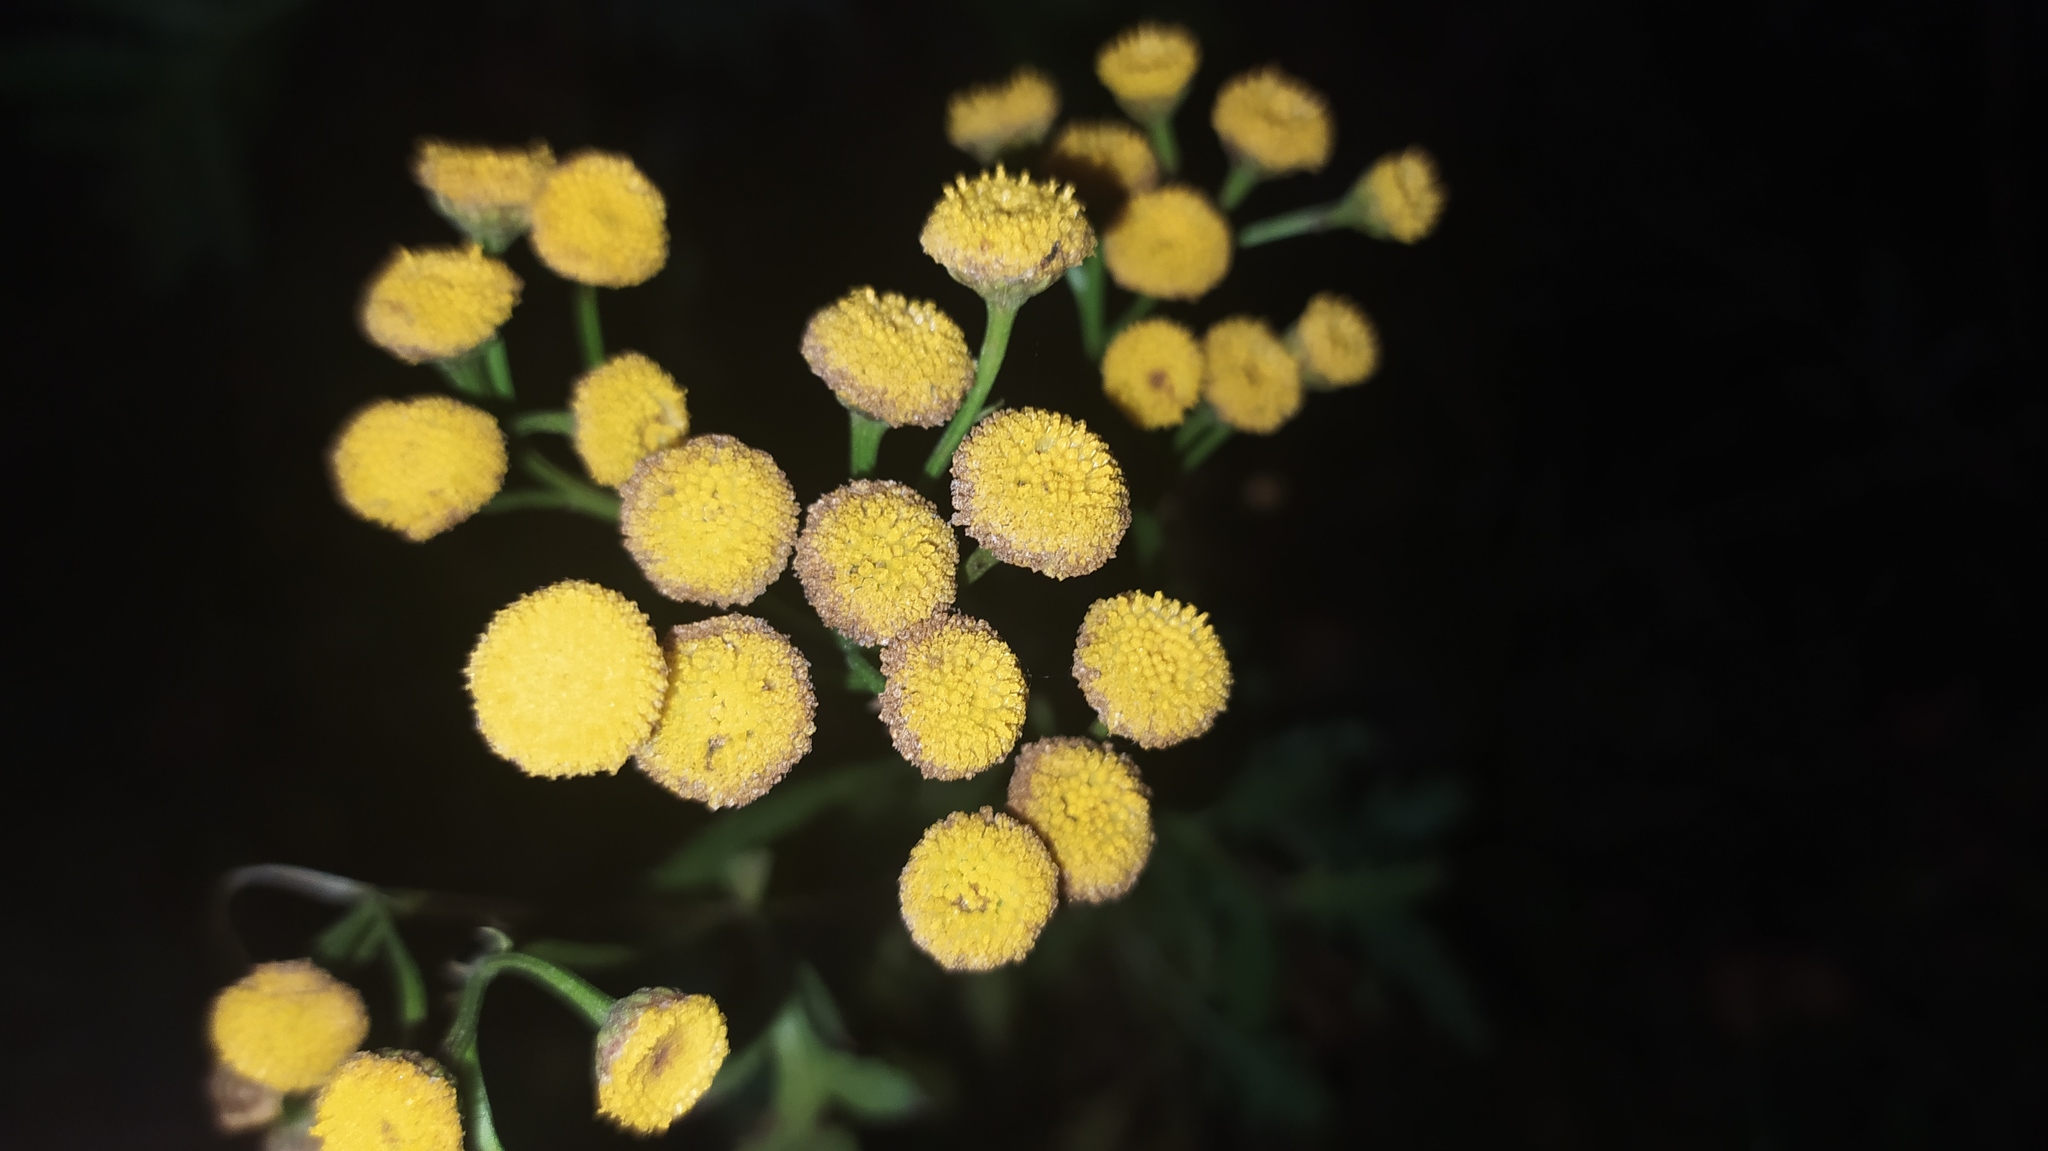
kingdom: Plantae
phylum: Tracheophyta
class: Magnoliopsida
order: Asterales
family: Asteraceae
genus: Tanacetum
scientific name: Tanacetum vulgare
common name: Common tansy
